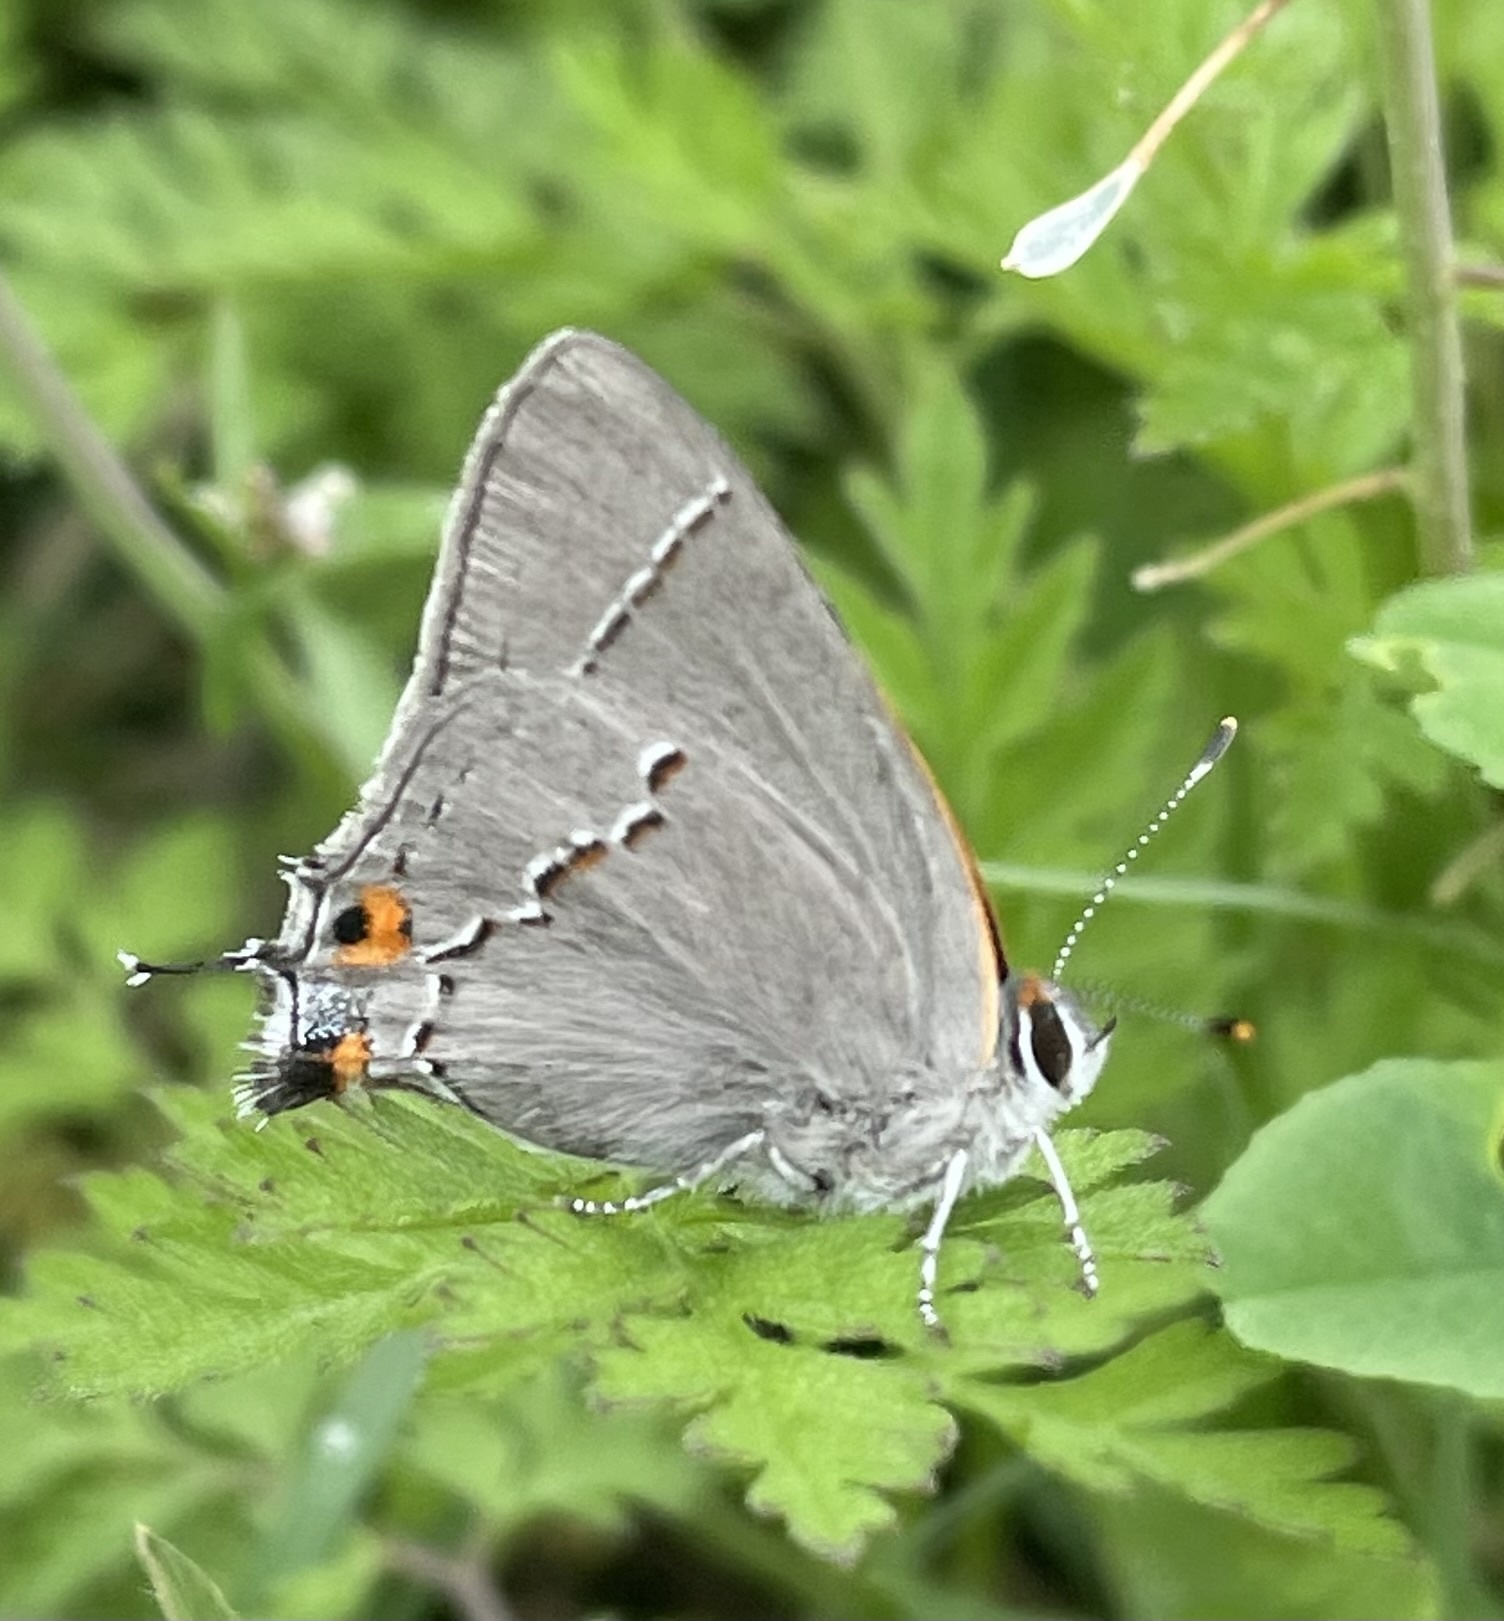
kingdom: Animalia
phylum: Arthropoda
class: Insecta
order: Lepidoptera
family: Lycaenidae
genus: Strymon
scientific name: Strymon melinus
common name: Gray hairstreak
